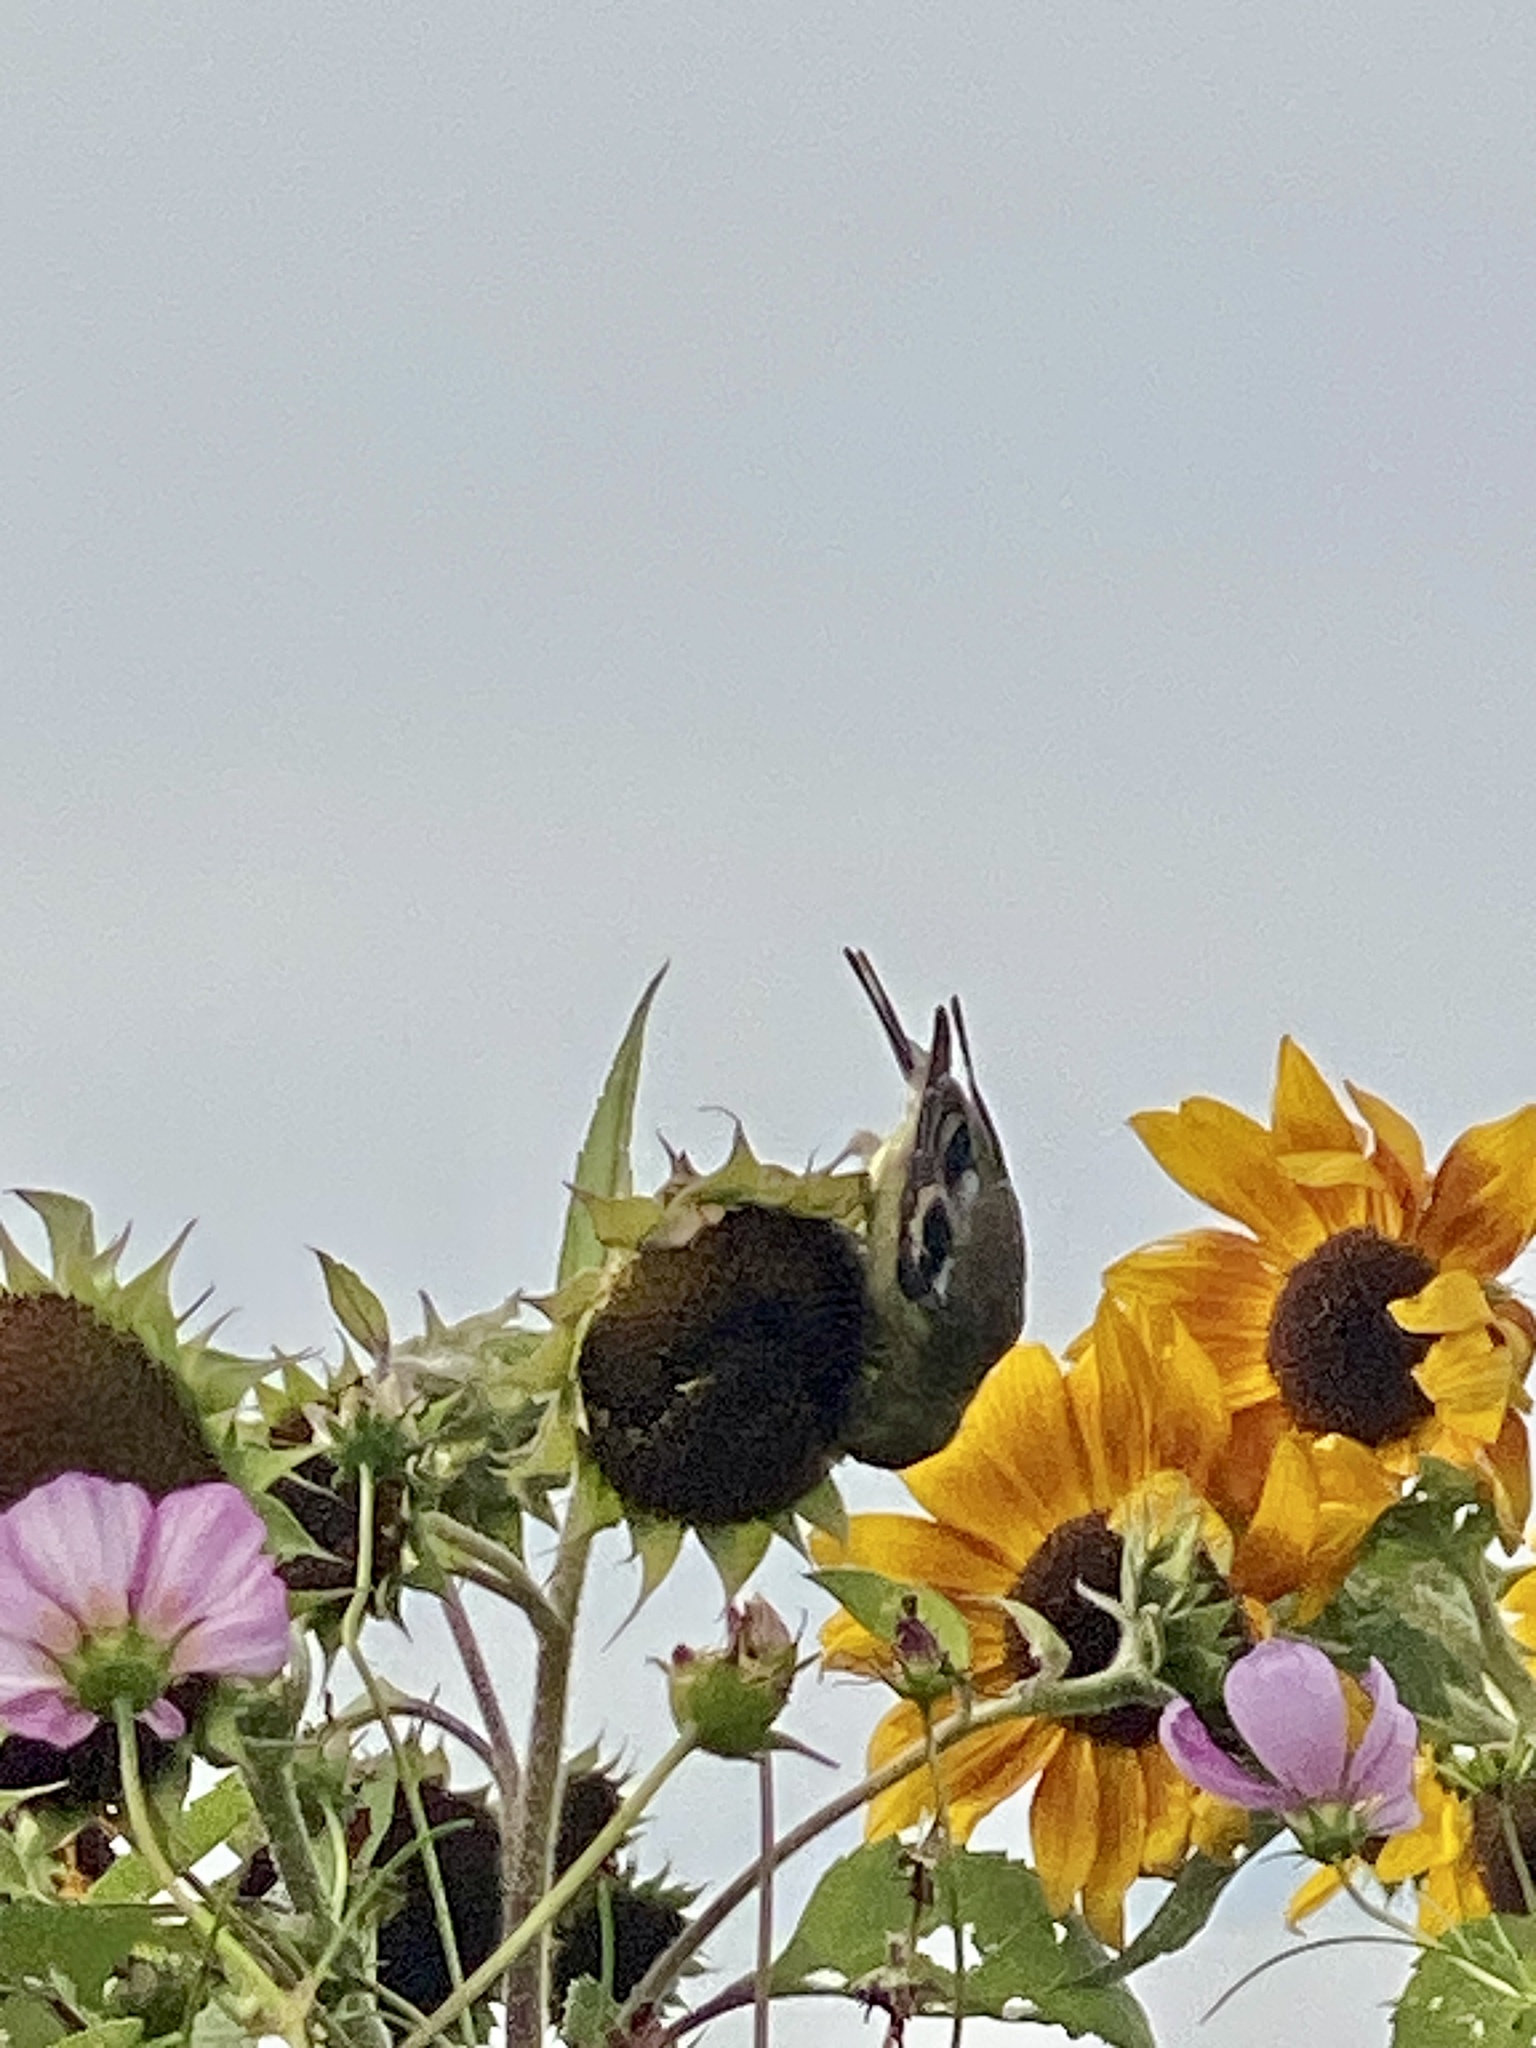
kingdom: Animalia
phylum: Chordata
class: Aves
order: Passeriformes
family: Fringillidae
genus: Spinus
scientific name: Spinus tristis
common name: American goldfinch
